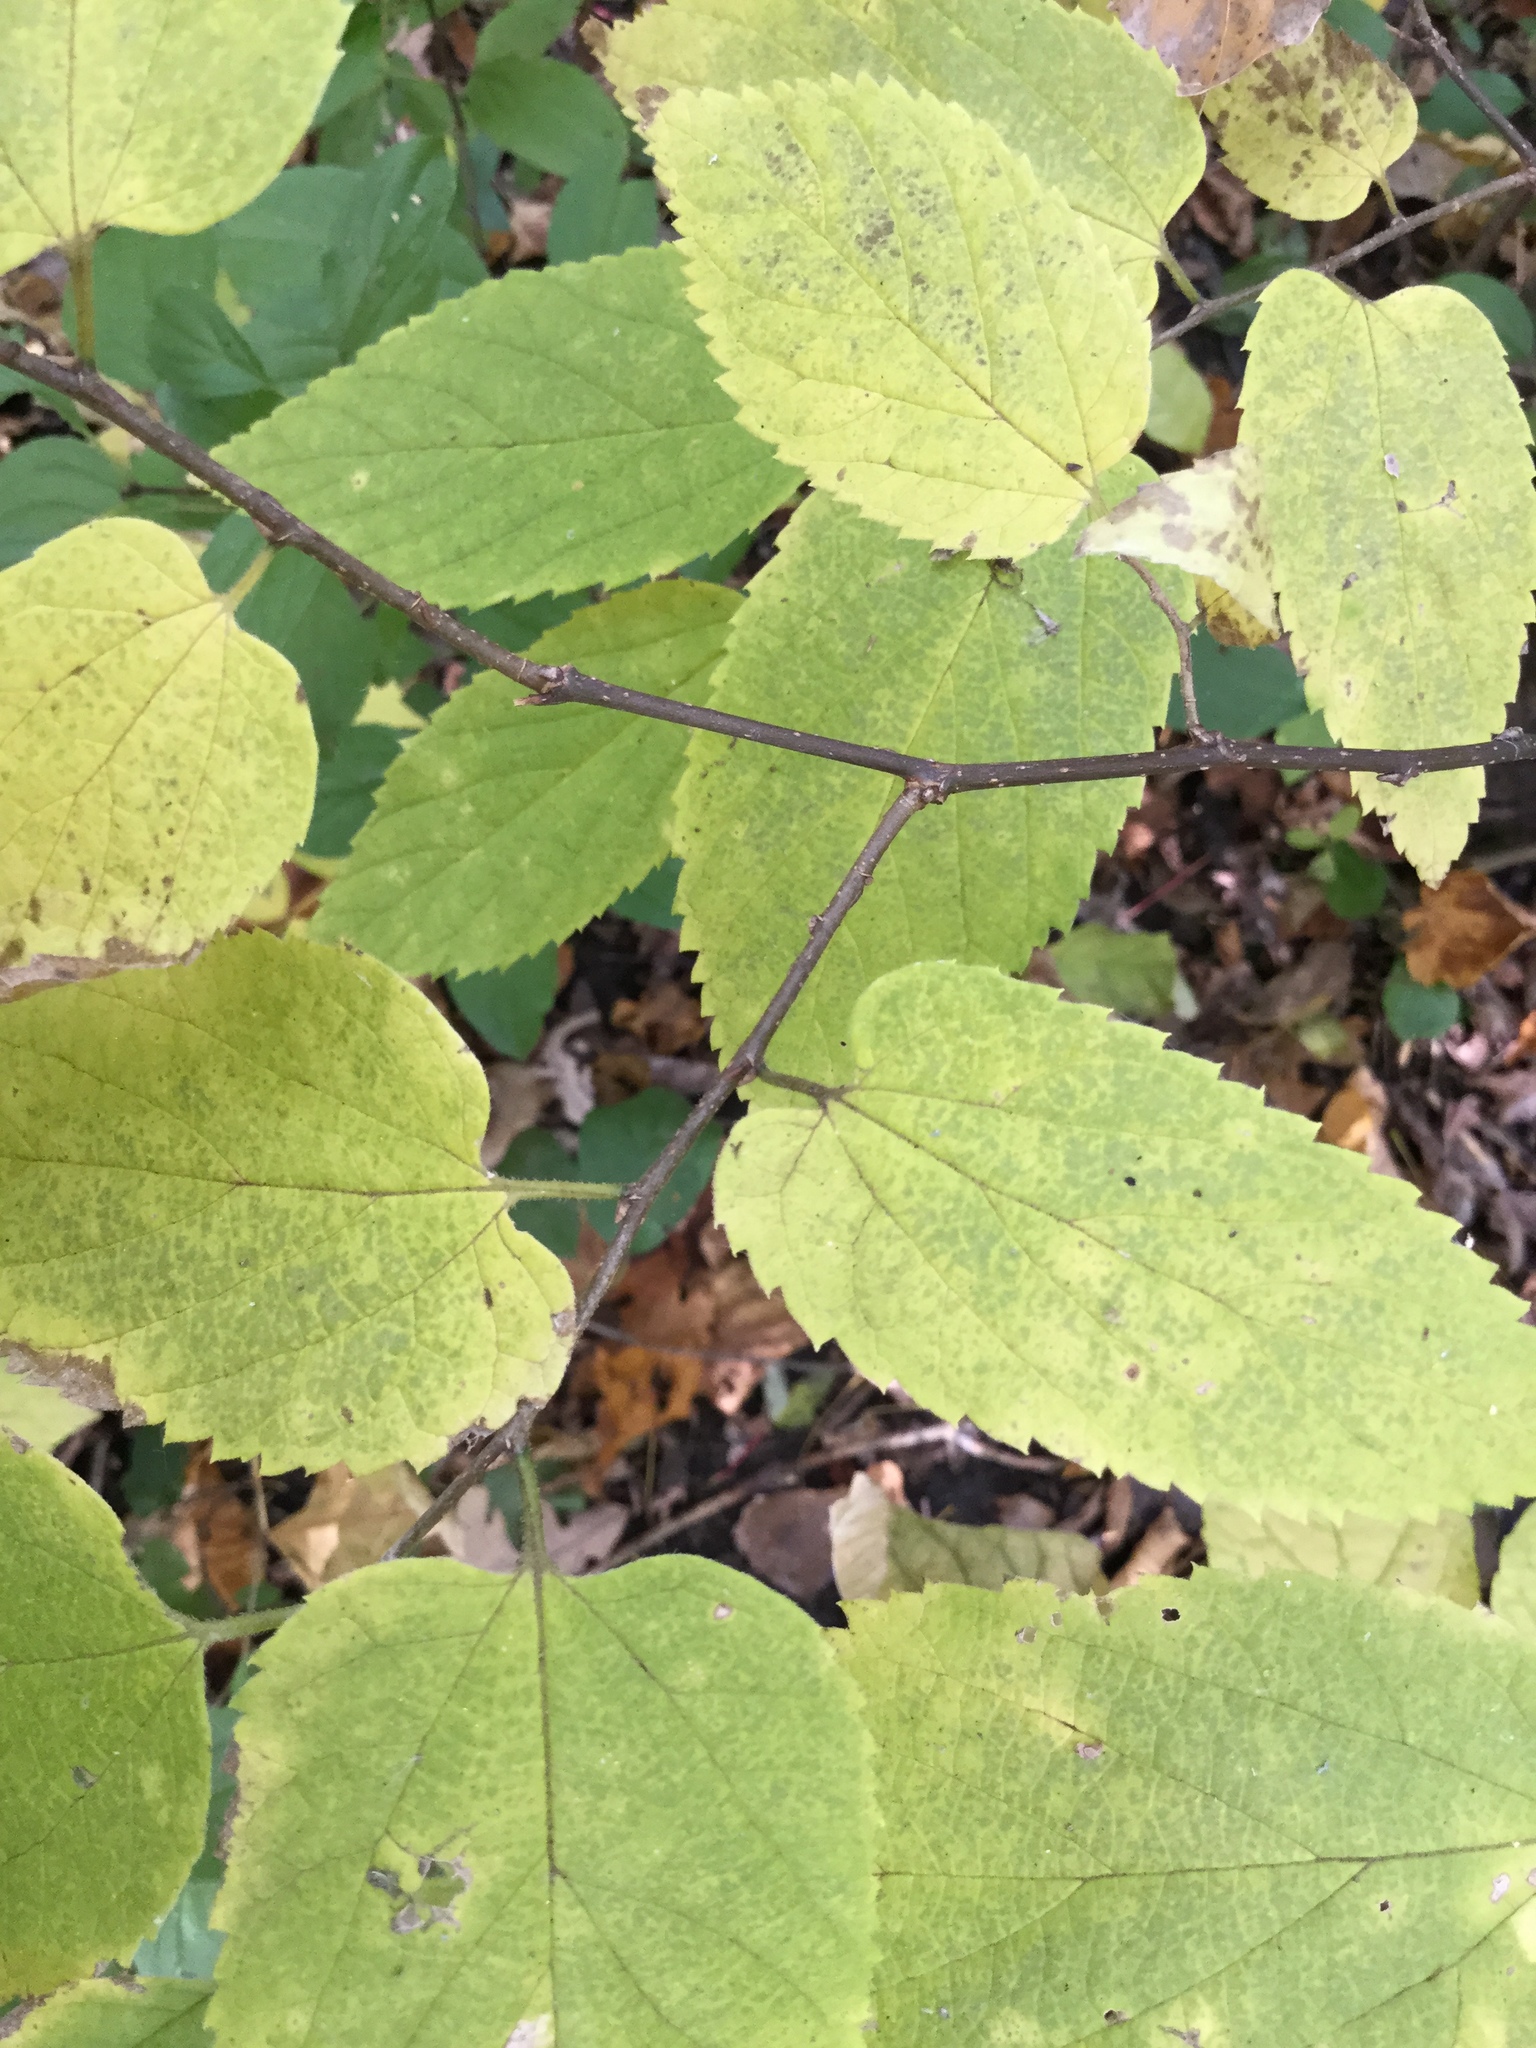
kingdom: Plantae
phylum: Tracheophyta
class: Magnoliopsida
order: Rosales
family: Cannabaceae
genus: Celtis
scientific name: Celtis occidentalis
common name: Common hackberry
